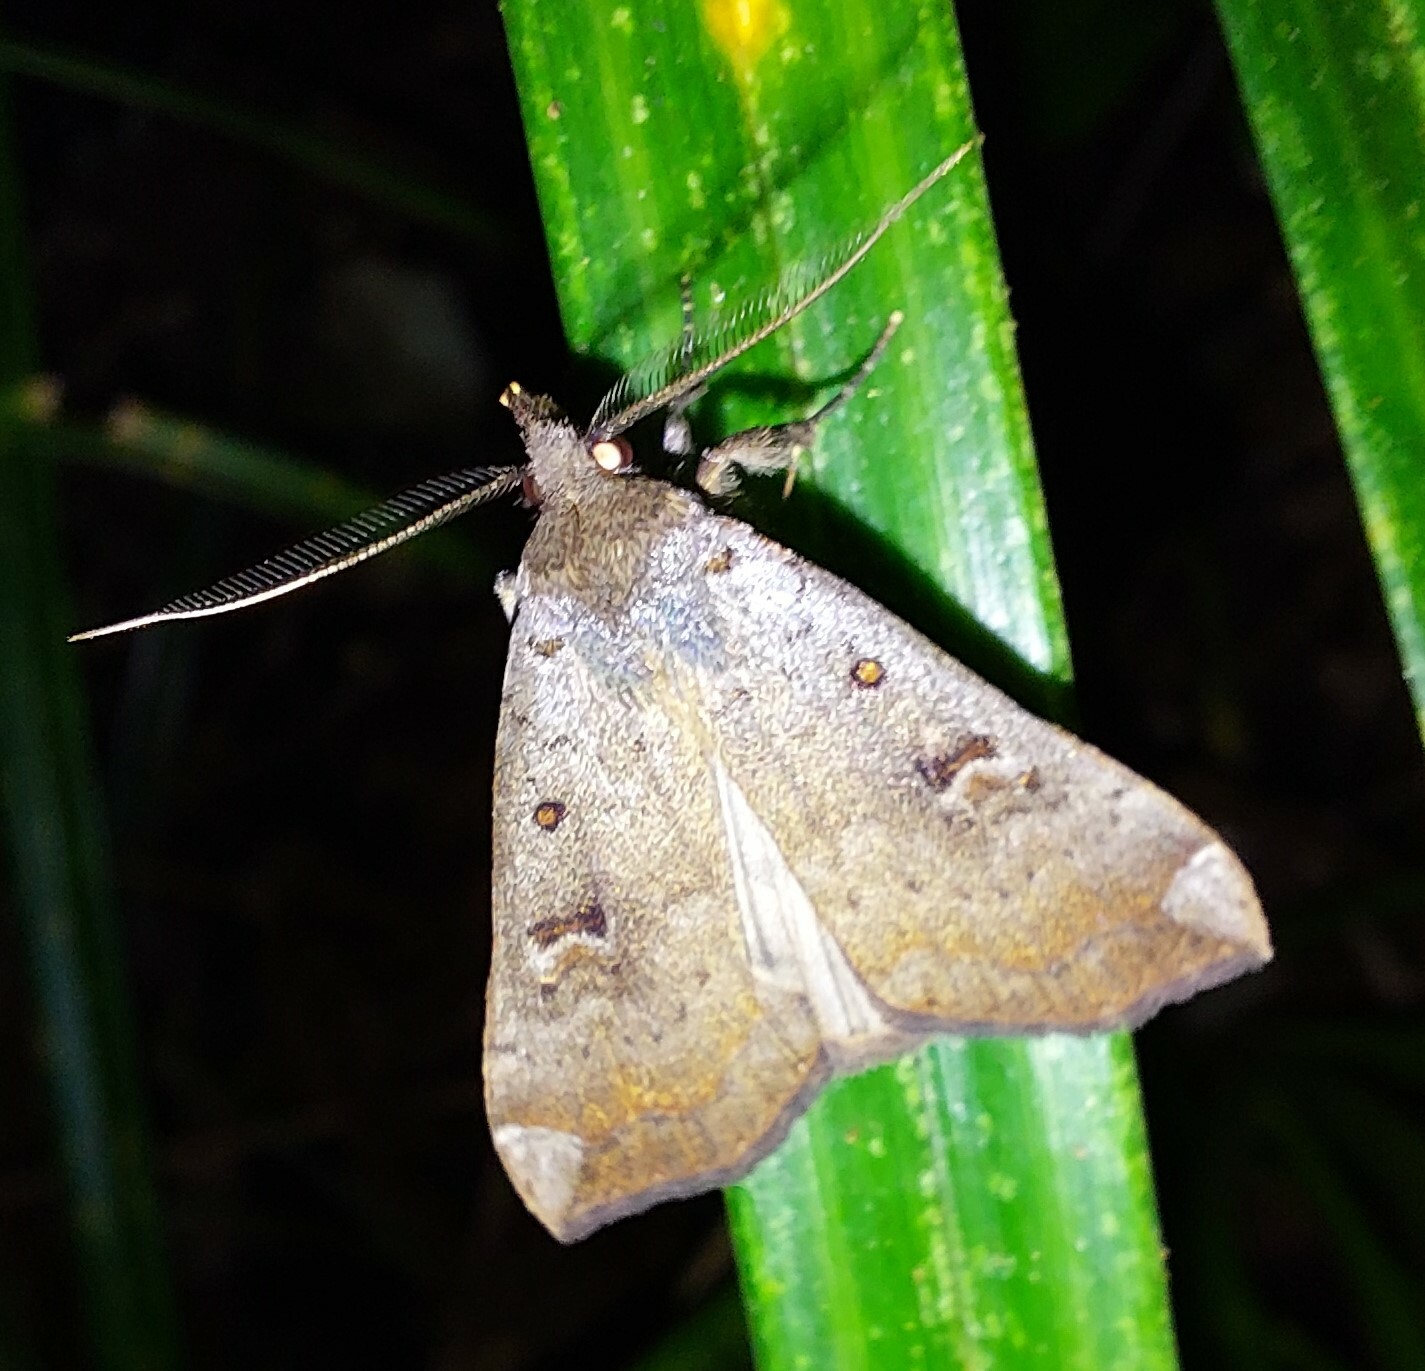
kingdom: Animalia
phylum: Arthropoda
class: Insecta
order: Lepidoptera
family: Erebidae
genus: Rhapsa
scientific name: Rhapsa scotosialis
